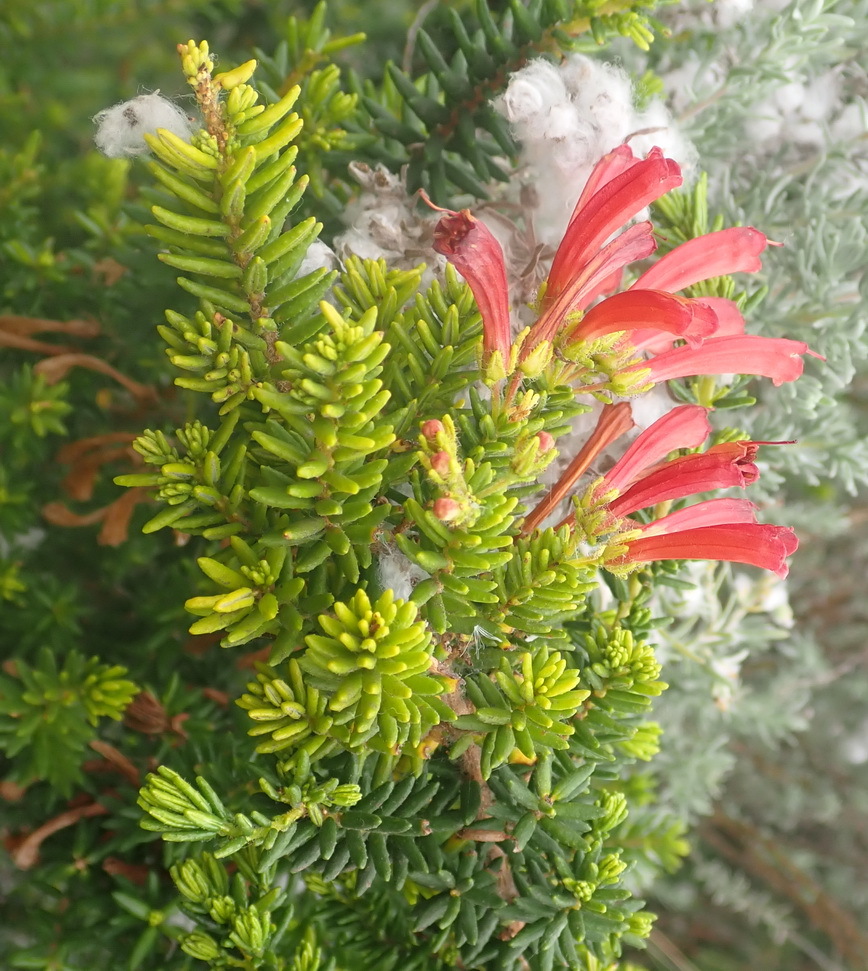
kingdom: Plantae
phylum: Tracheophyta
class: Magnoliopsida
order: Ericales
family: Ericaceae
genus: Erica
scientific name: Erica glandulosa
